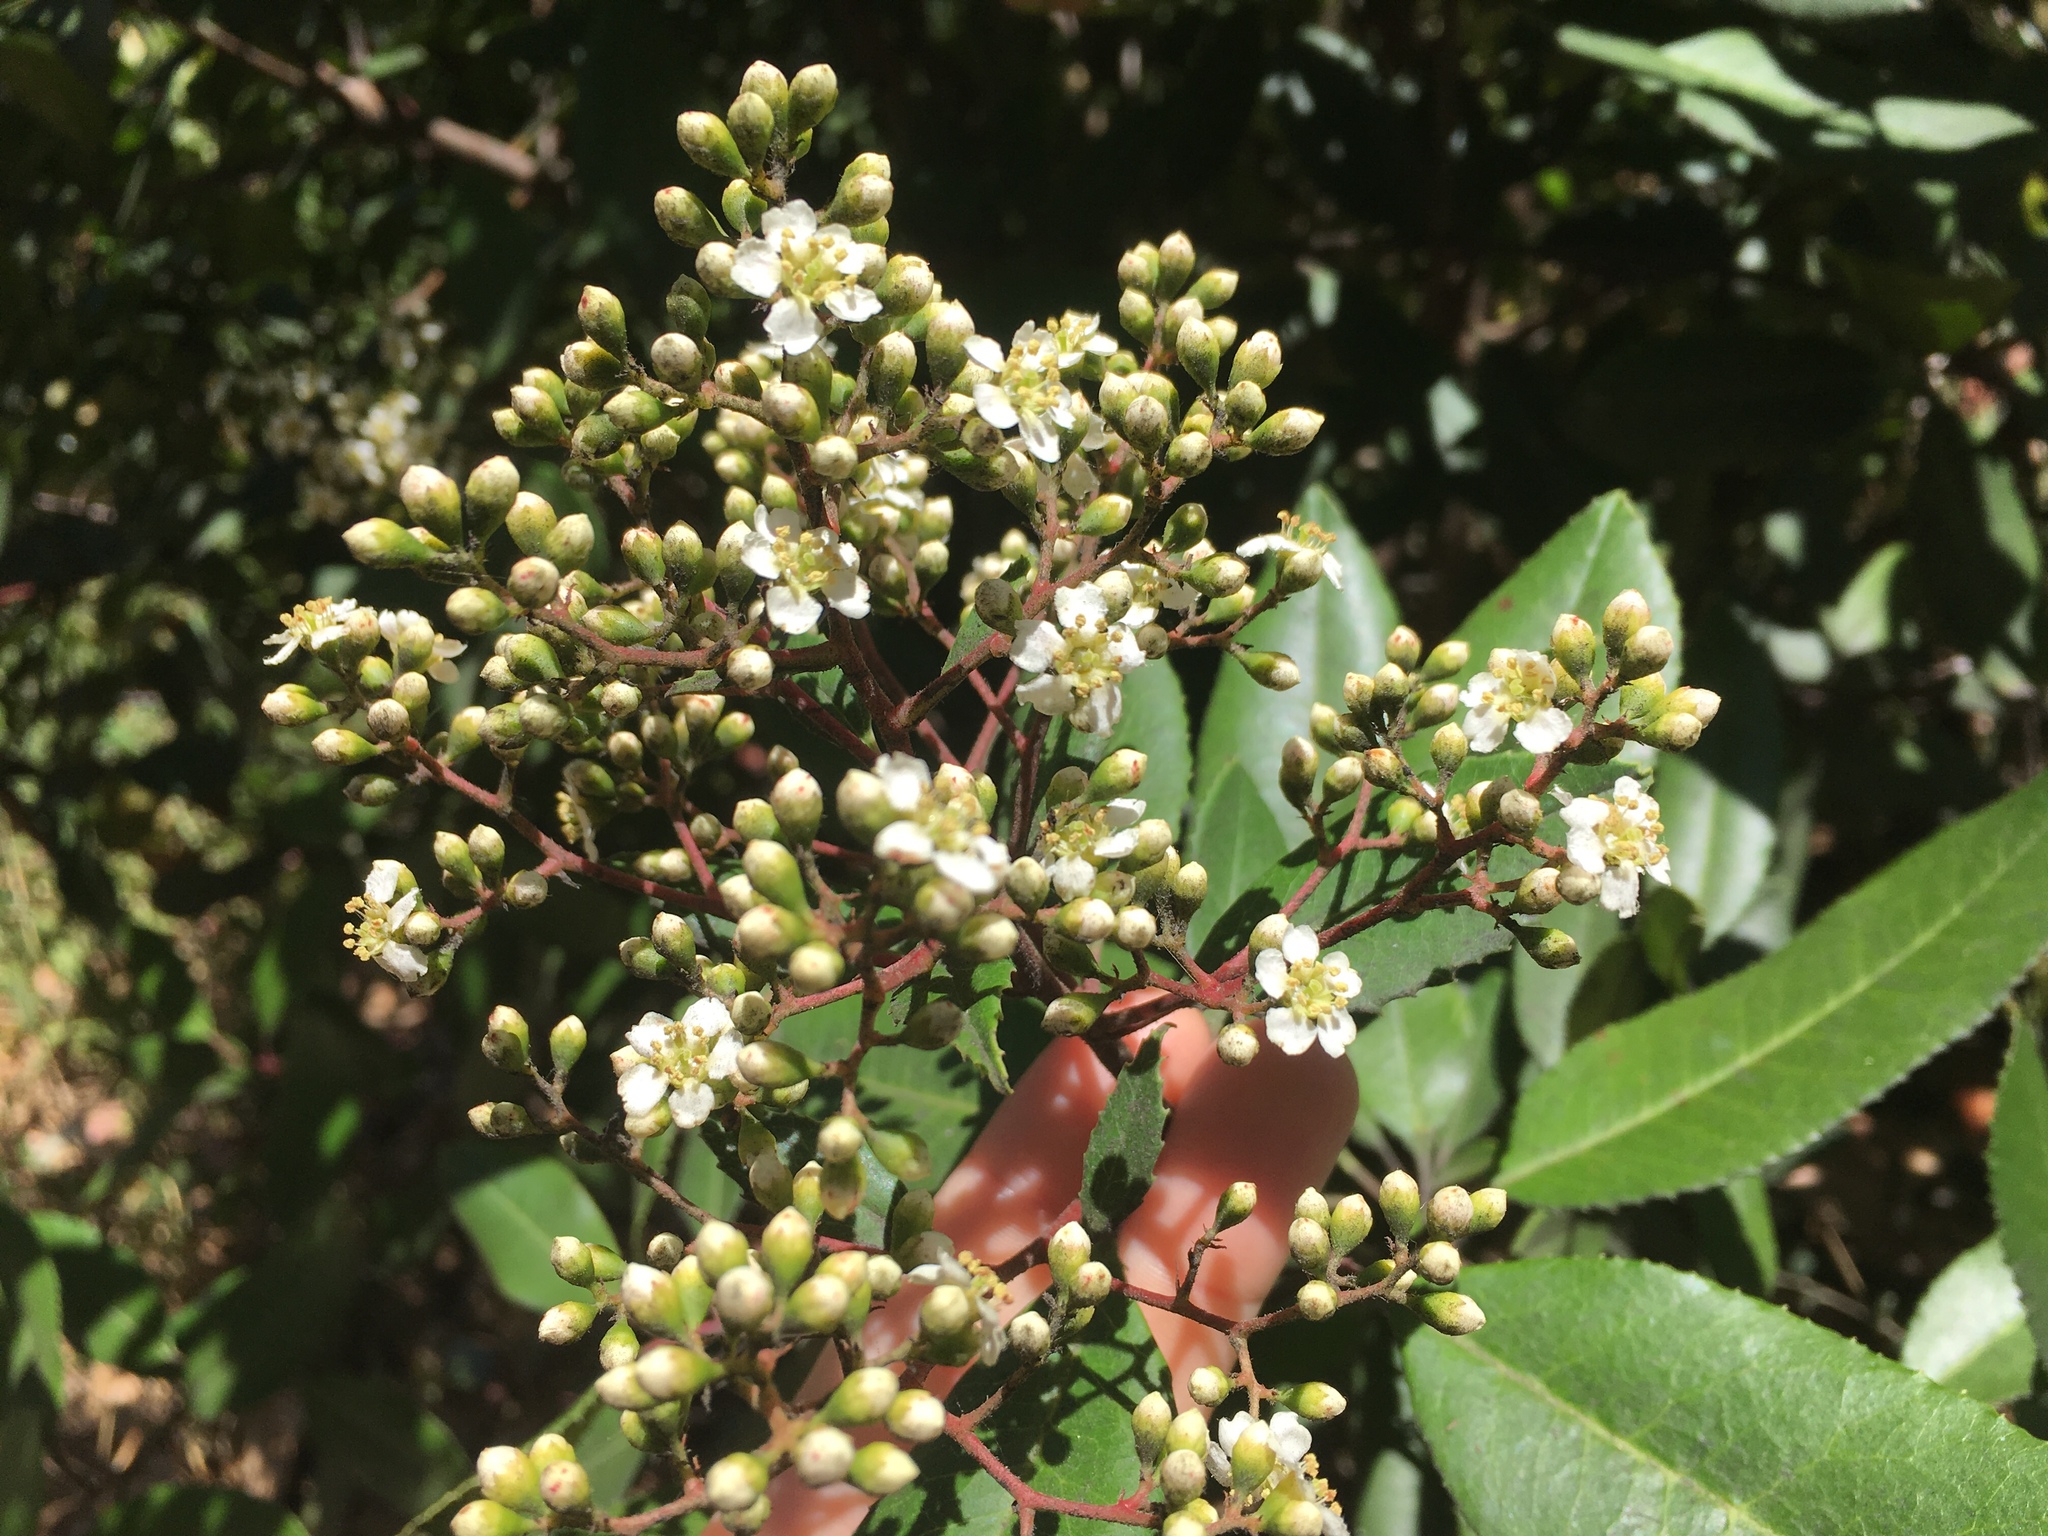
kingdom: Plantae
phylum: Tracheophyta
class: Magnoliopsida
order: Rosales
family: Rosaceae
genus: Heteromeles
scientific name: Heteromeles arbutifolia
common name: California-holly
